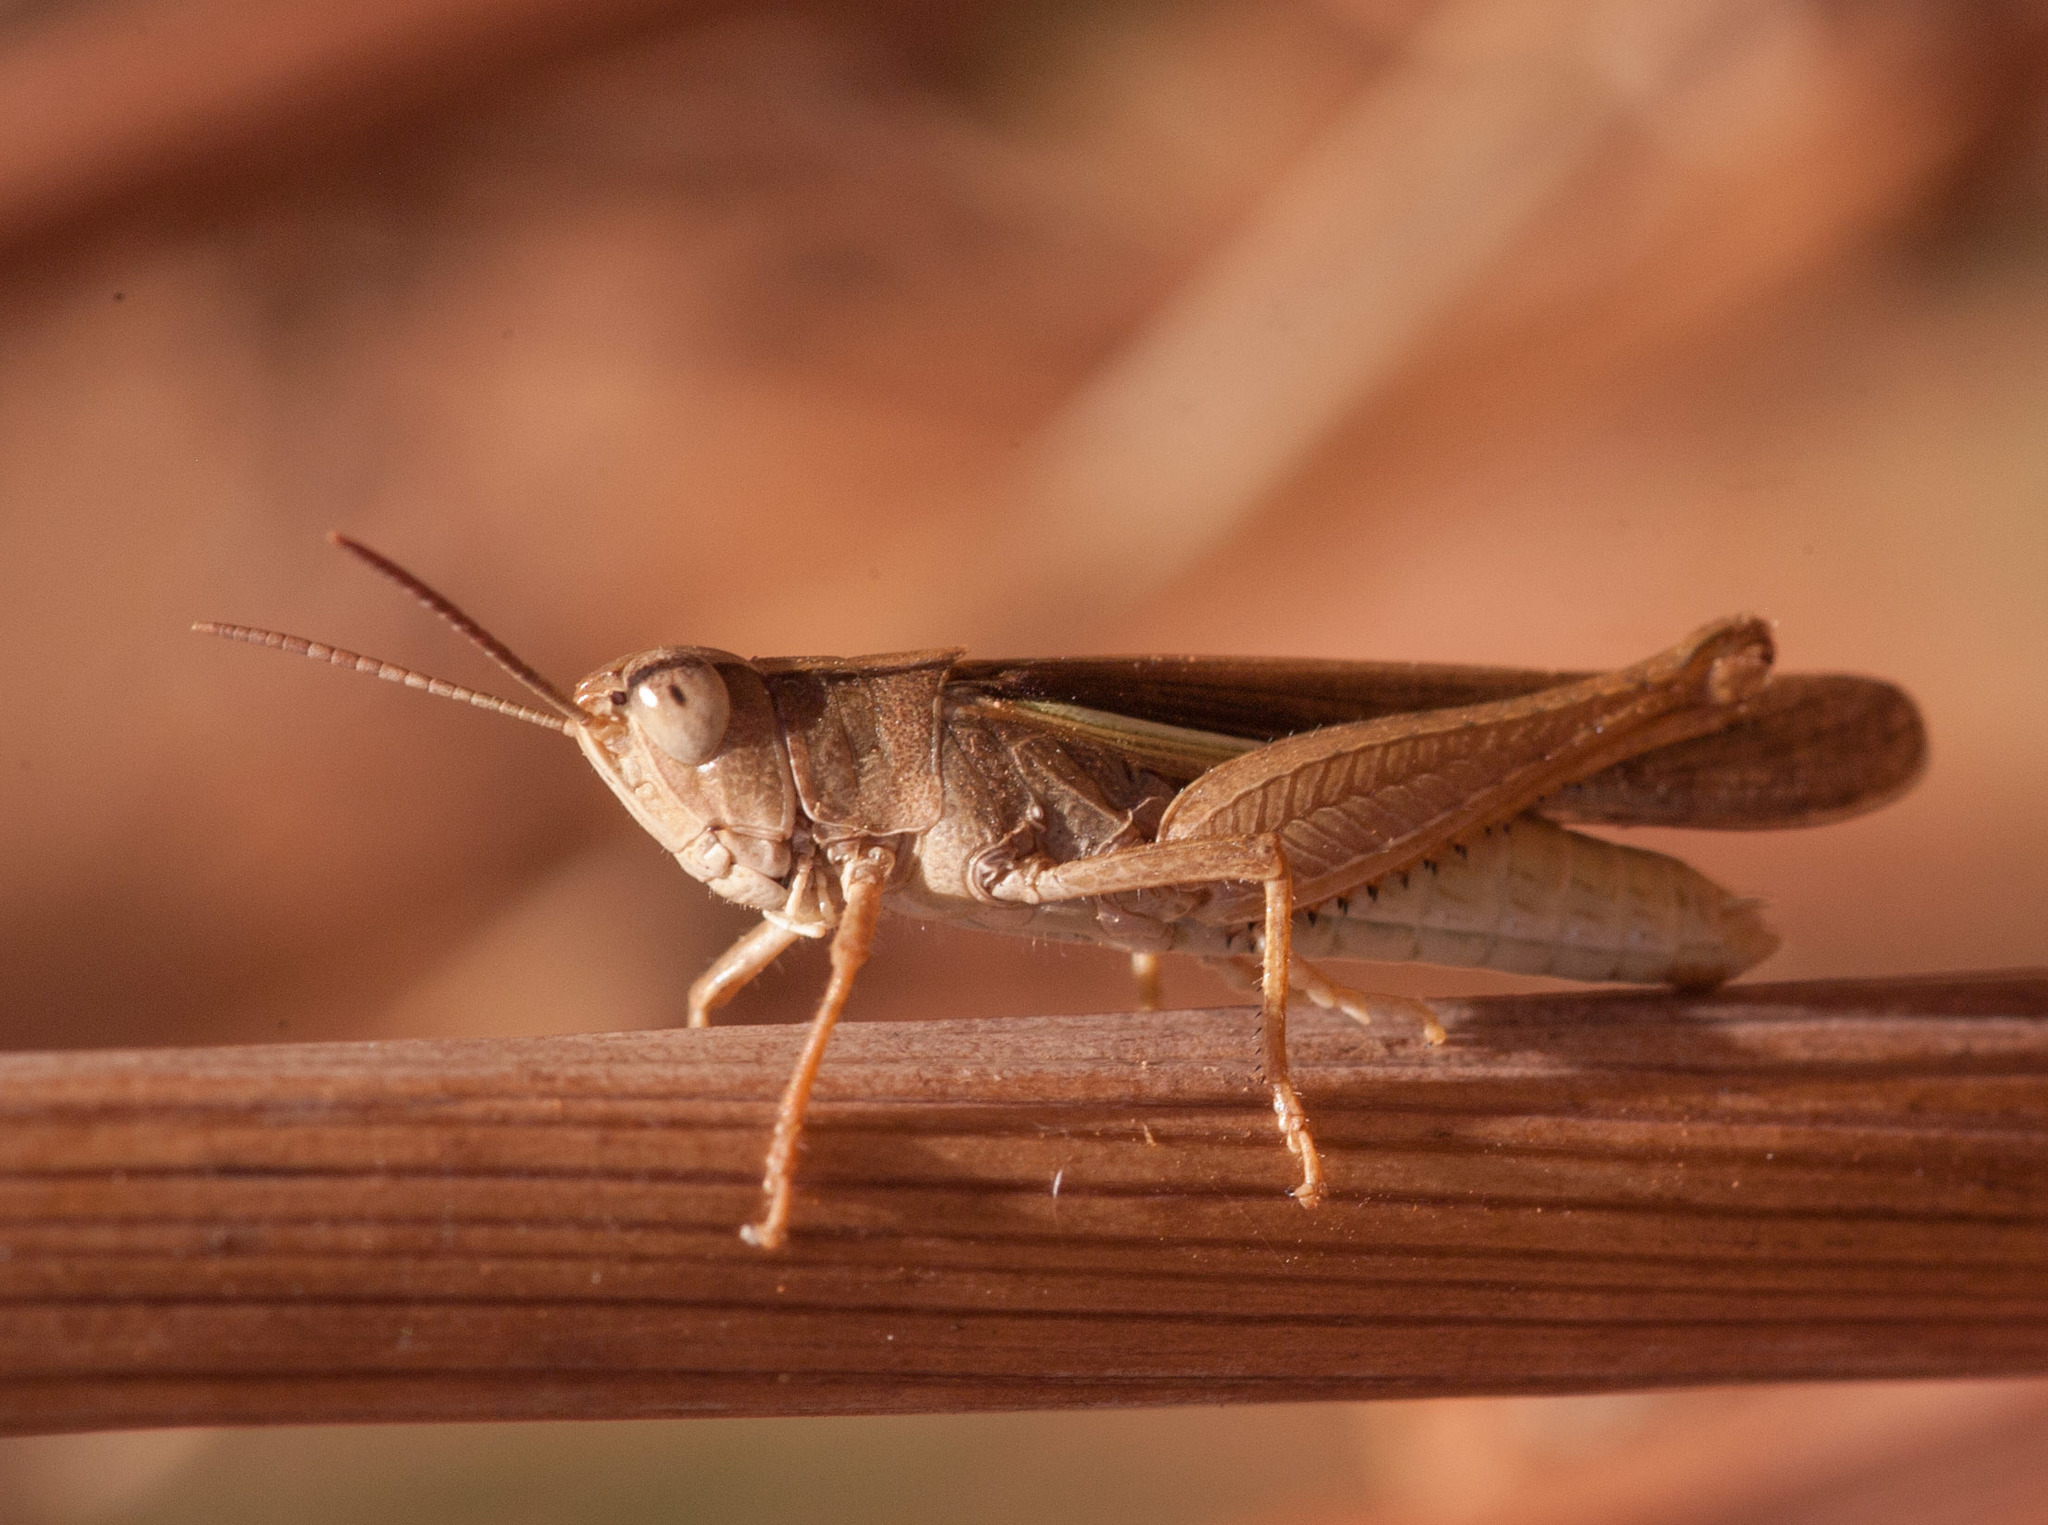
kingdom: Animalia
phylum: Arthropoda
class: Insecta
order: Orthoptera
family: Acrididae
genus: Schizobothrus
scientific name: Schizobothrus flavovittatus
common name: Disappearing grasshopper
